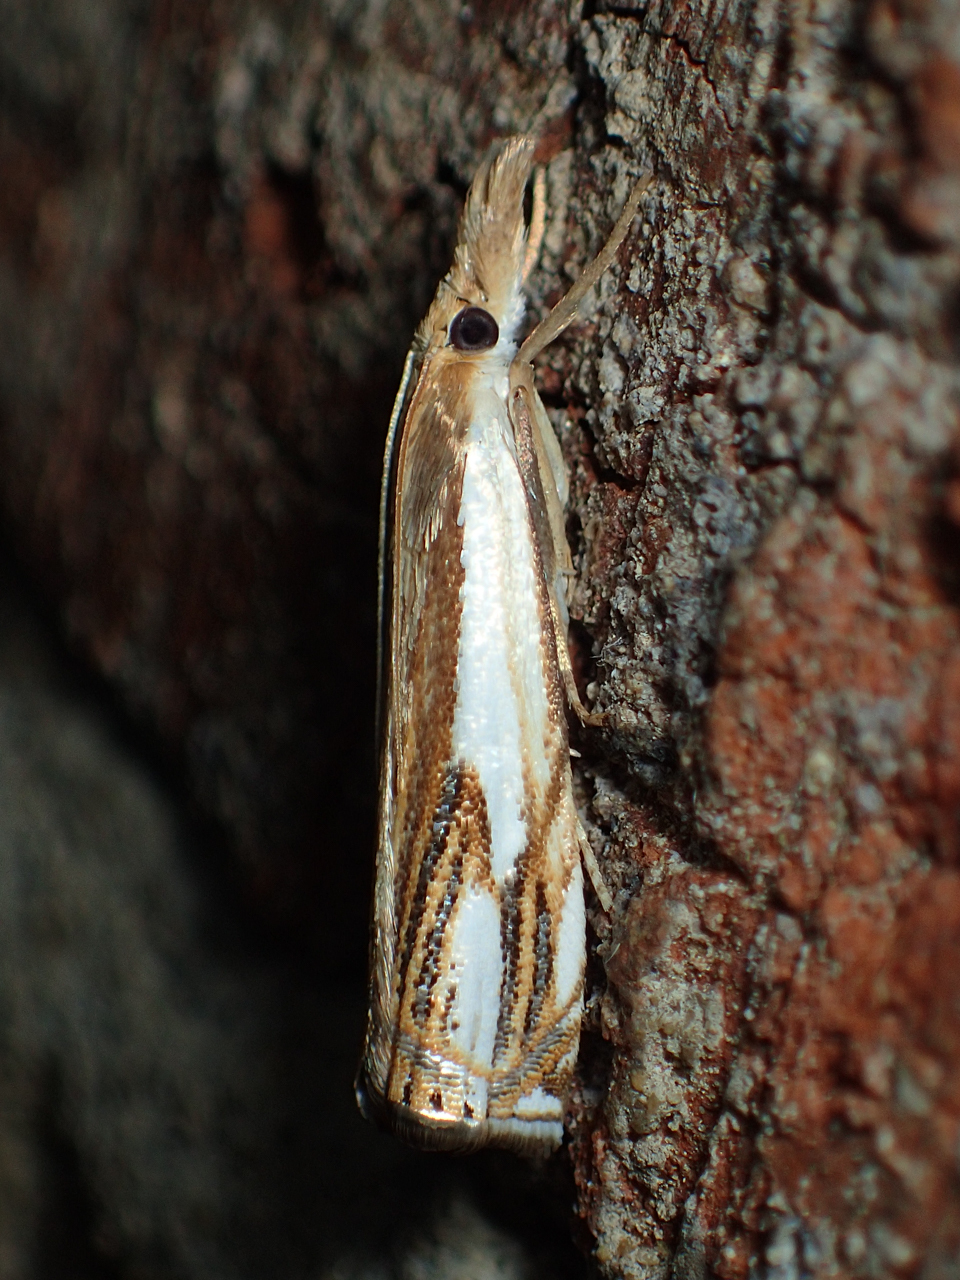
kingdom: Animalia
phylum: Arthropoda
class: Insecta
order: Lepidoptera
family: Crambidae
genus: Crambus
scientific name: Crambus agitatellus
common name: Double-banded grass-veneer
